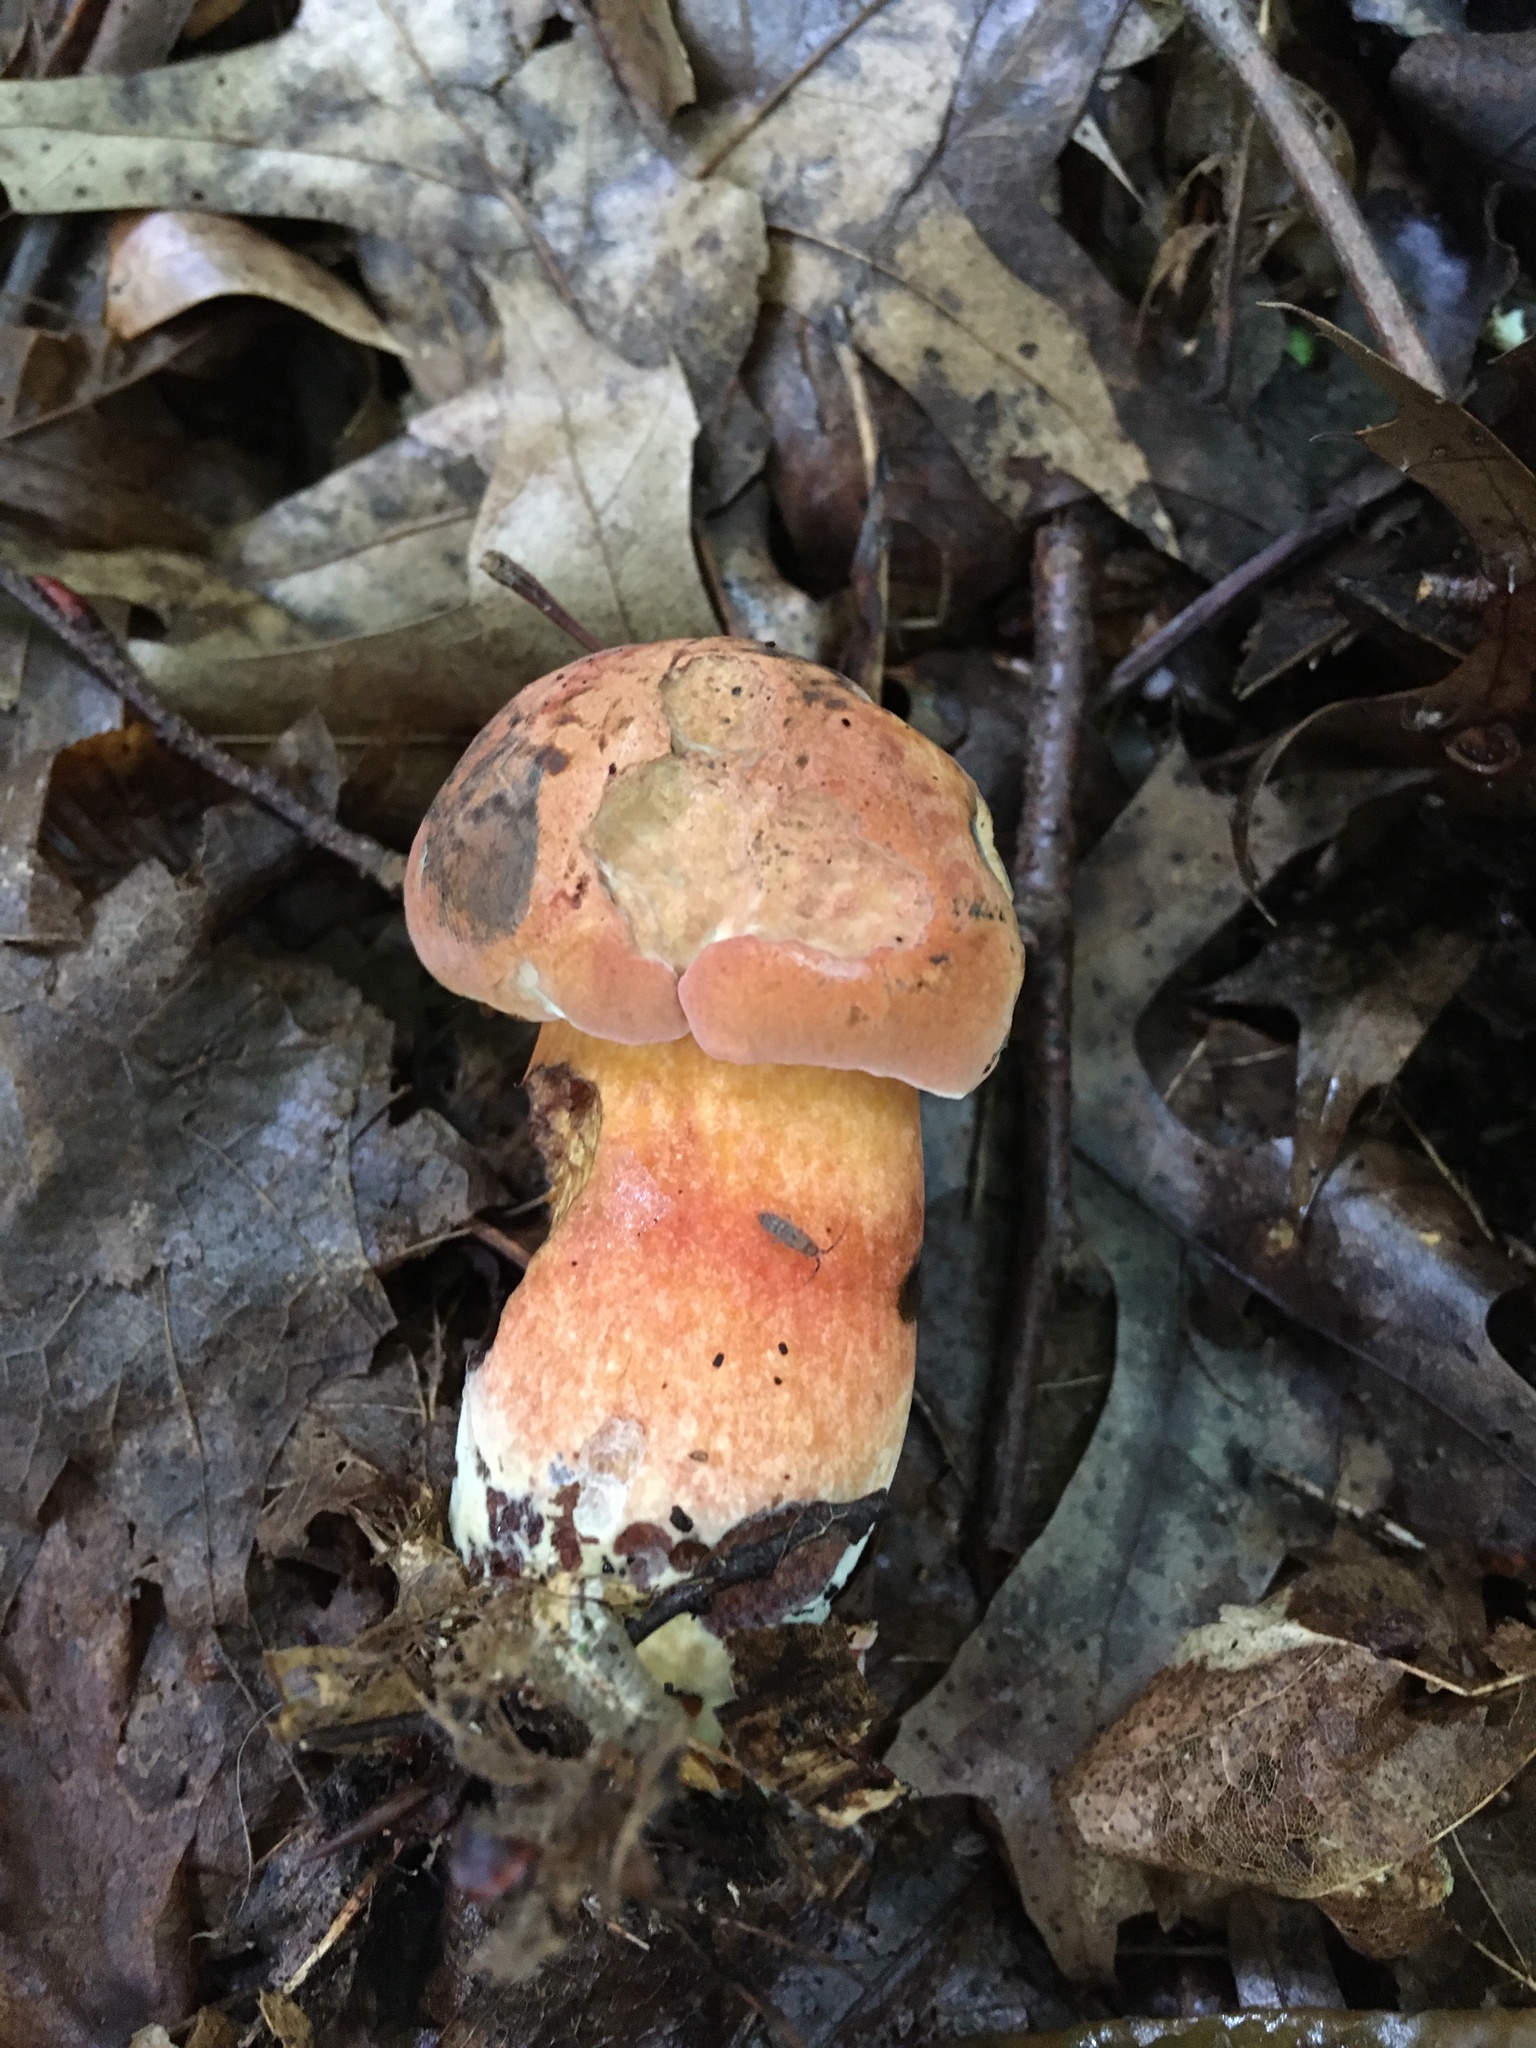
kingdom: Fungi
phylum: Basidiomycota
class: Agaricomycetes
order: Boletales
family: Boletaceae
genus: Boletus
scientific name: Boletus subvelutipes
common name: Red-mouth bolete
